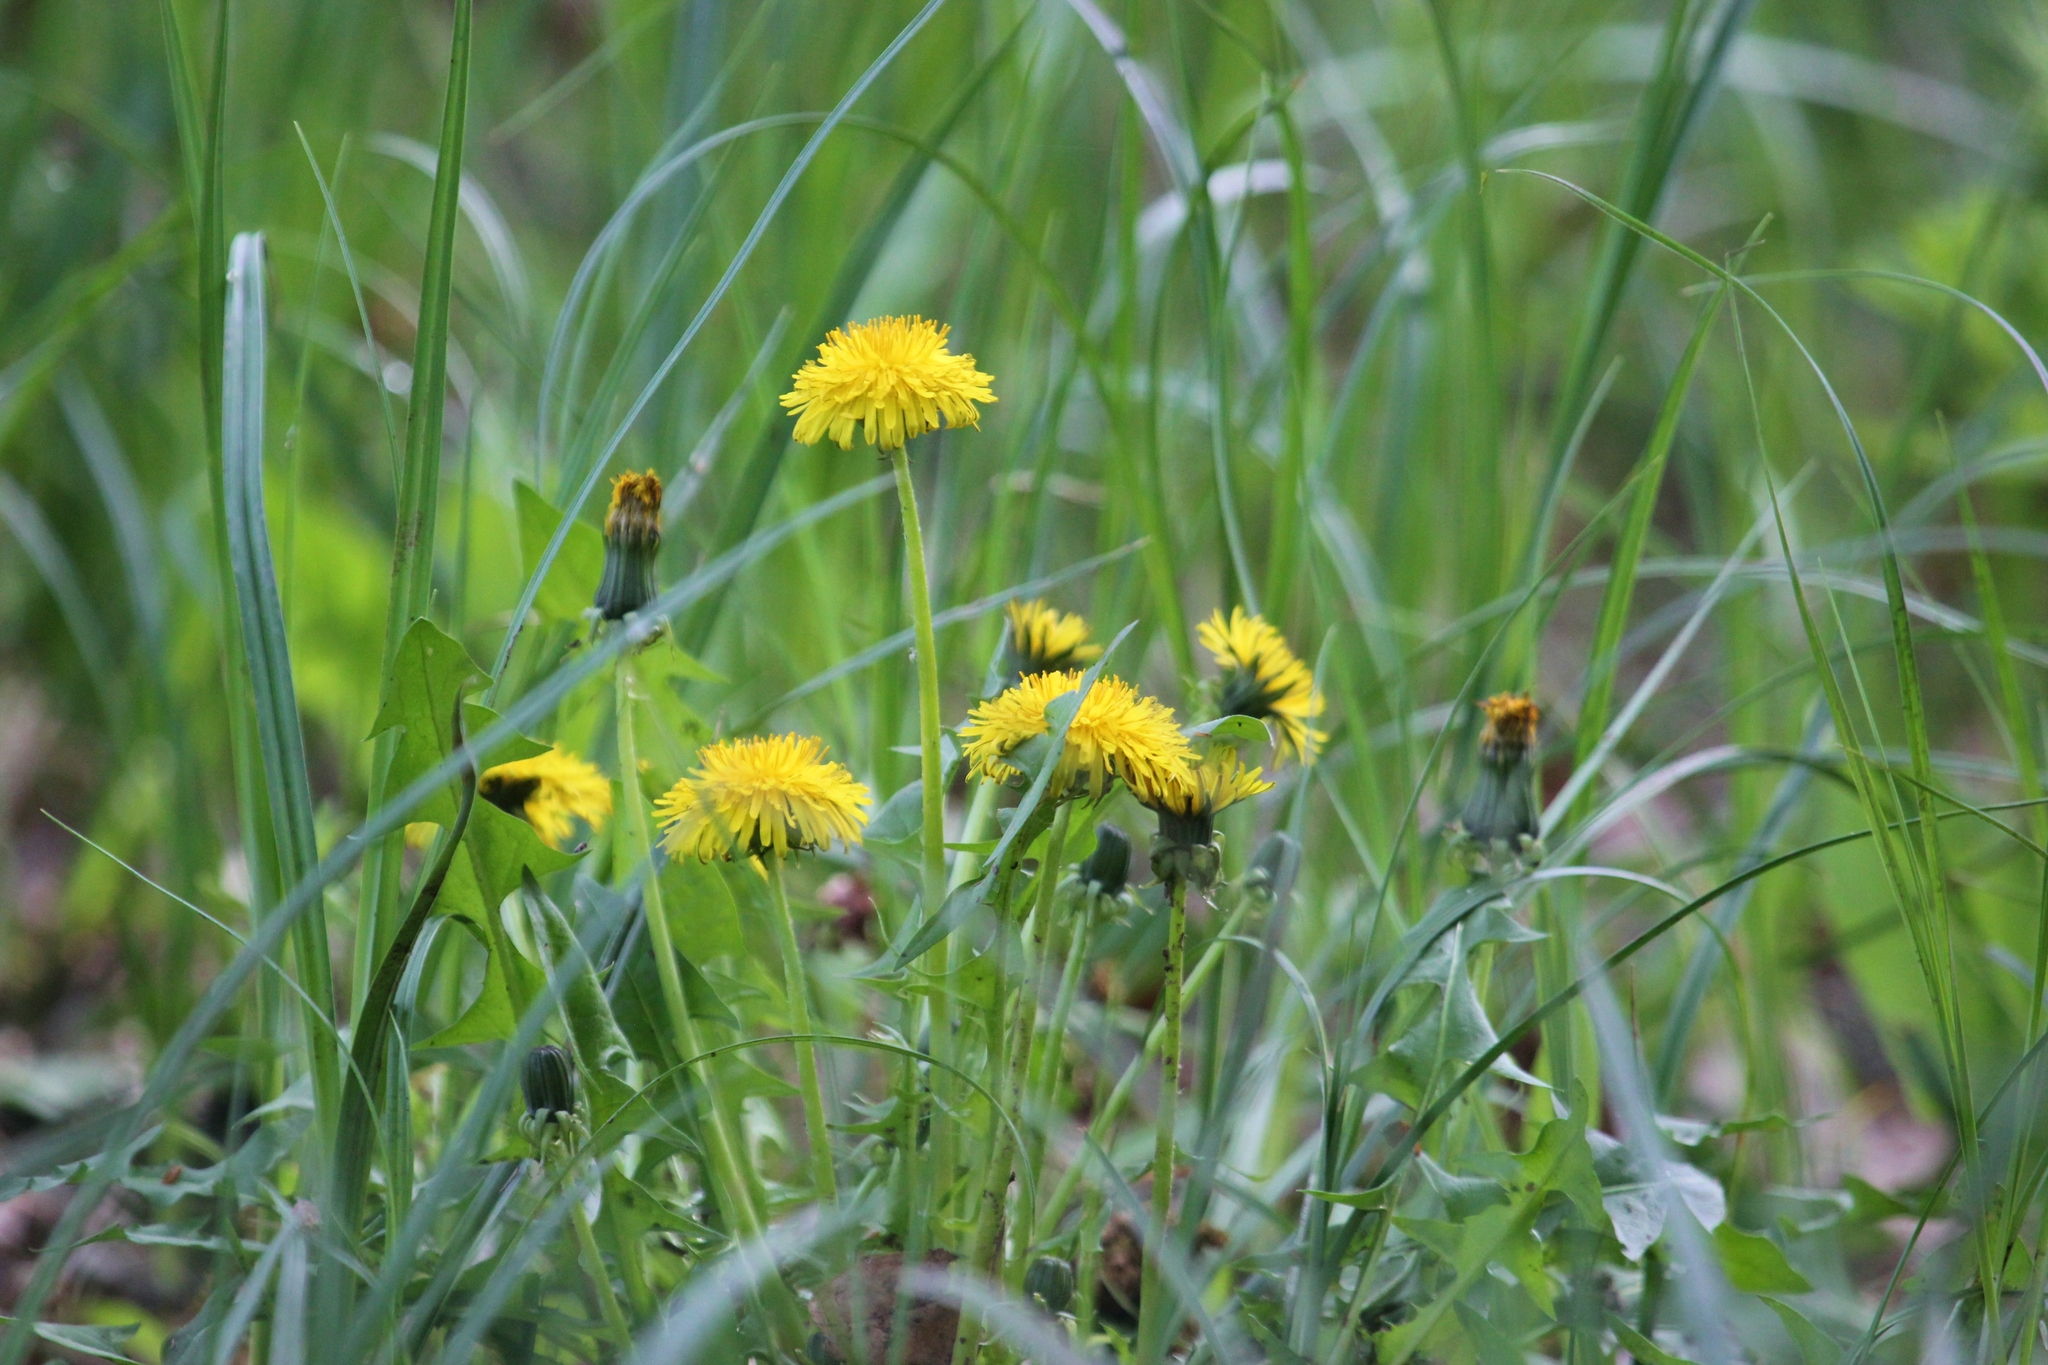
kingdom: Plantae
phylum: Tracheophyta
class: Magnoliopsida
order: Asterales
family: Asteraceae
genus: Taraxacum
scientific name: Taraxacum officinale
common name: Common dandelion
